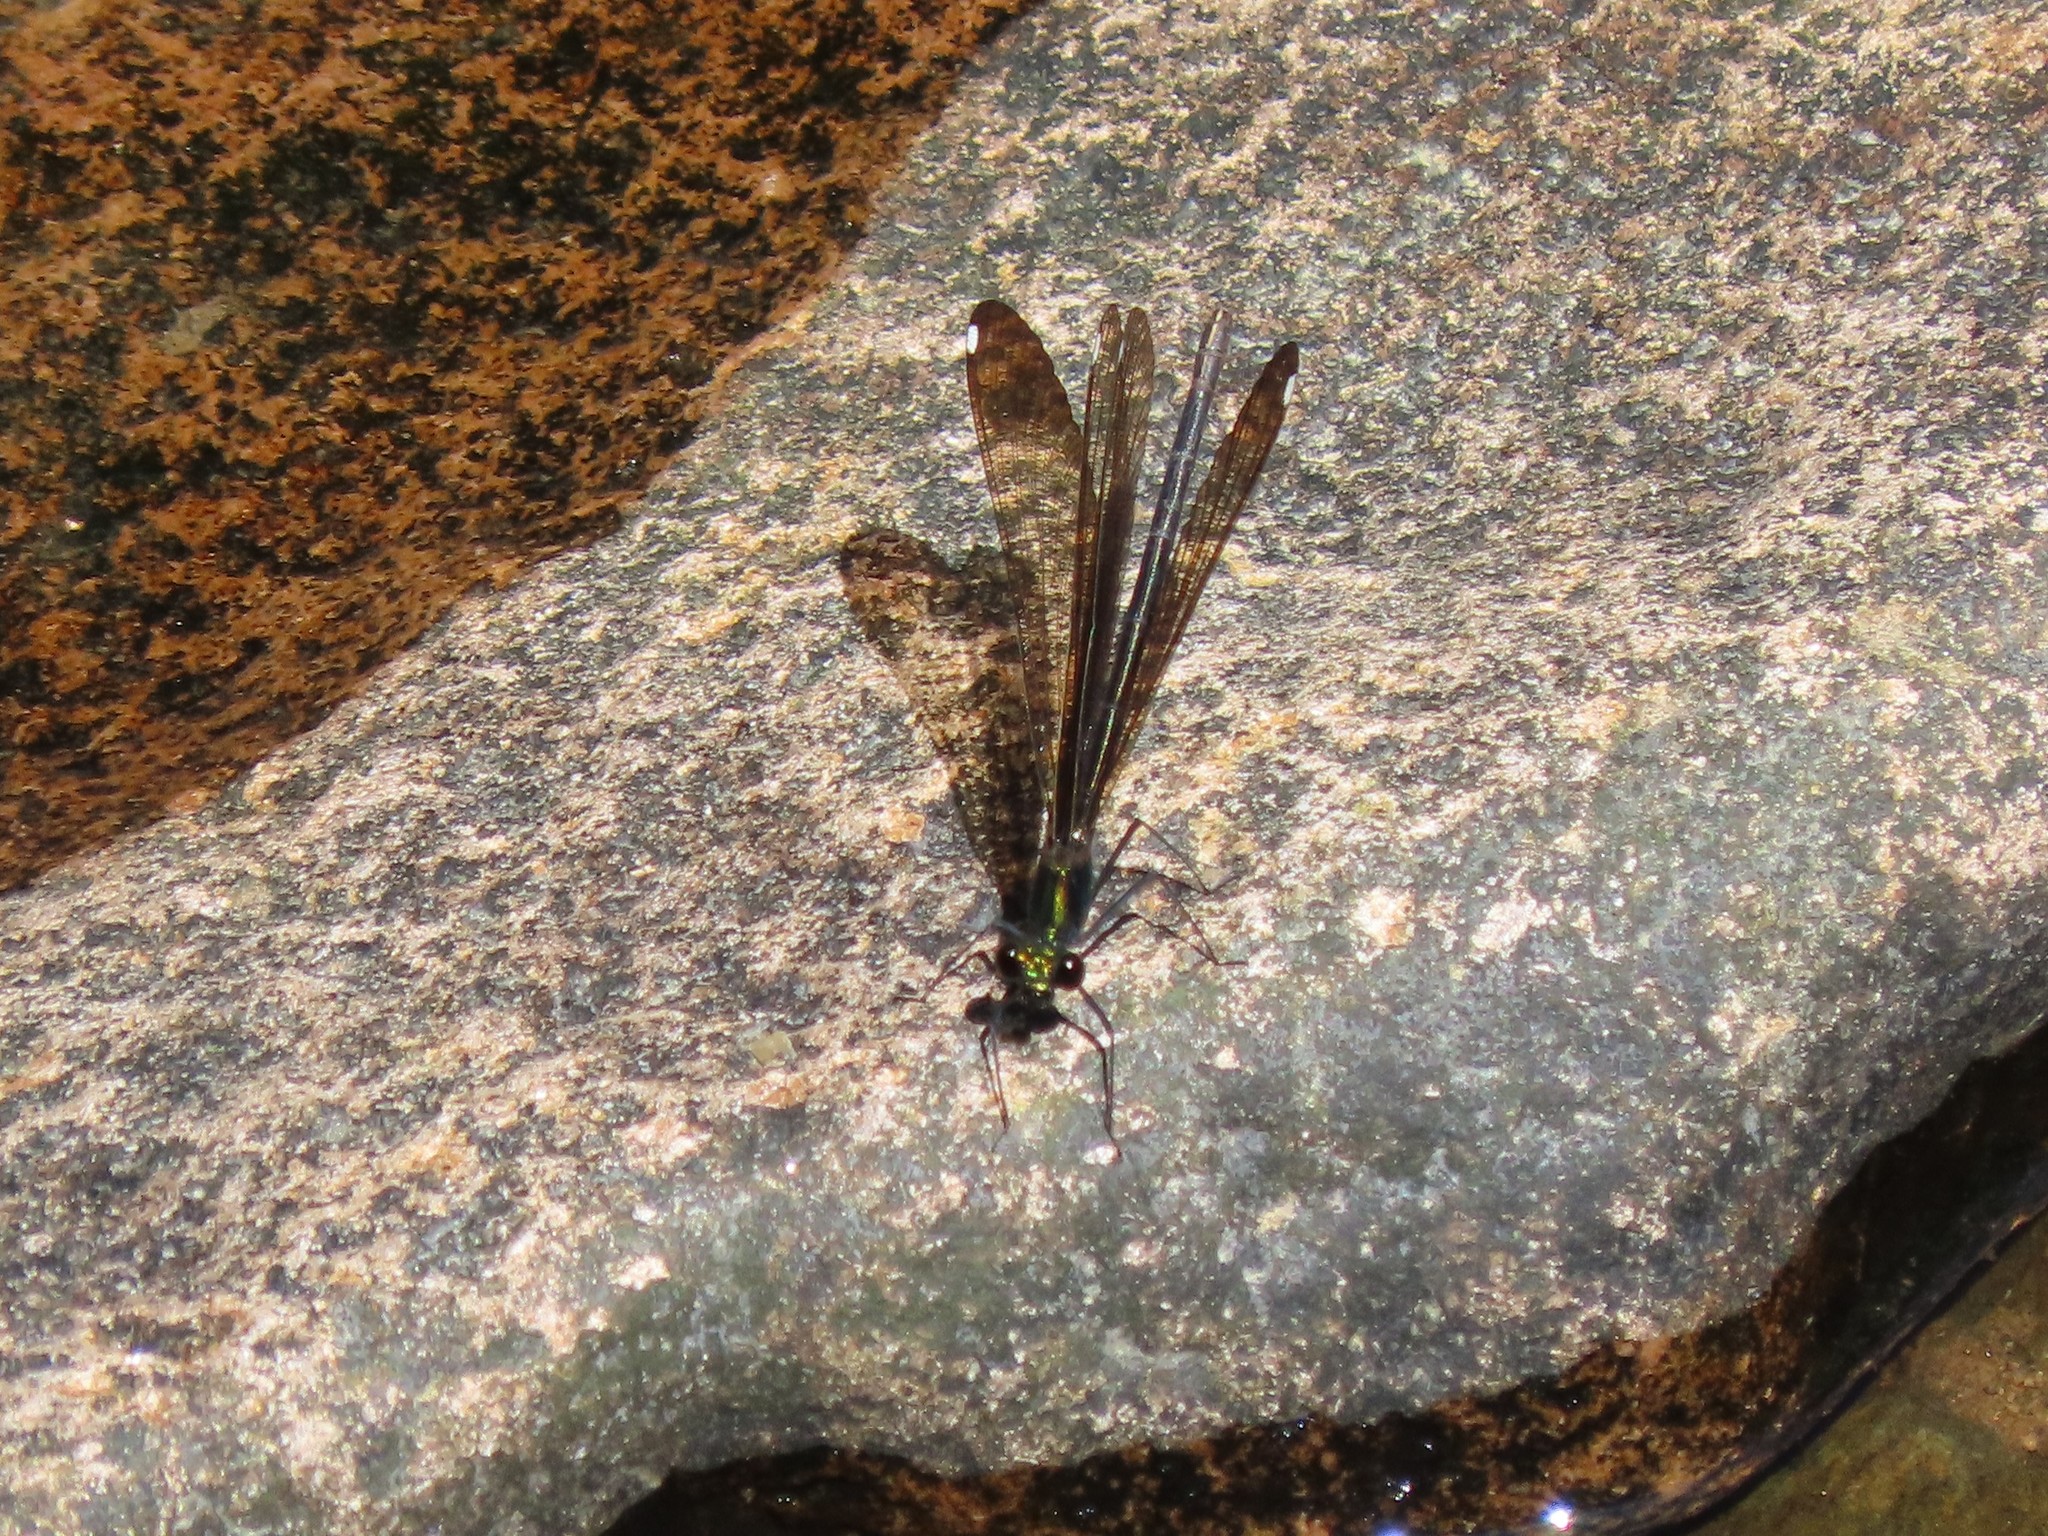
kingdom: Animalia
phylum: Arthropoda
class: Insecta
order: Odonata
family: Calopterygidae
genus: Calopteryx
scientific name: Calopteryx maculata
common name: Ebony jewelwing
